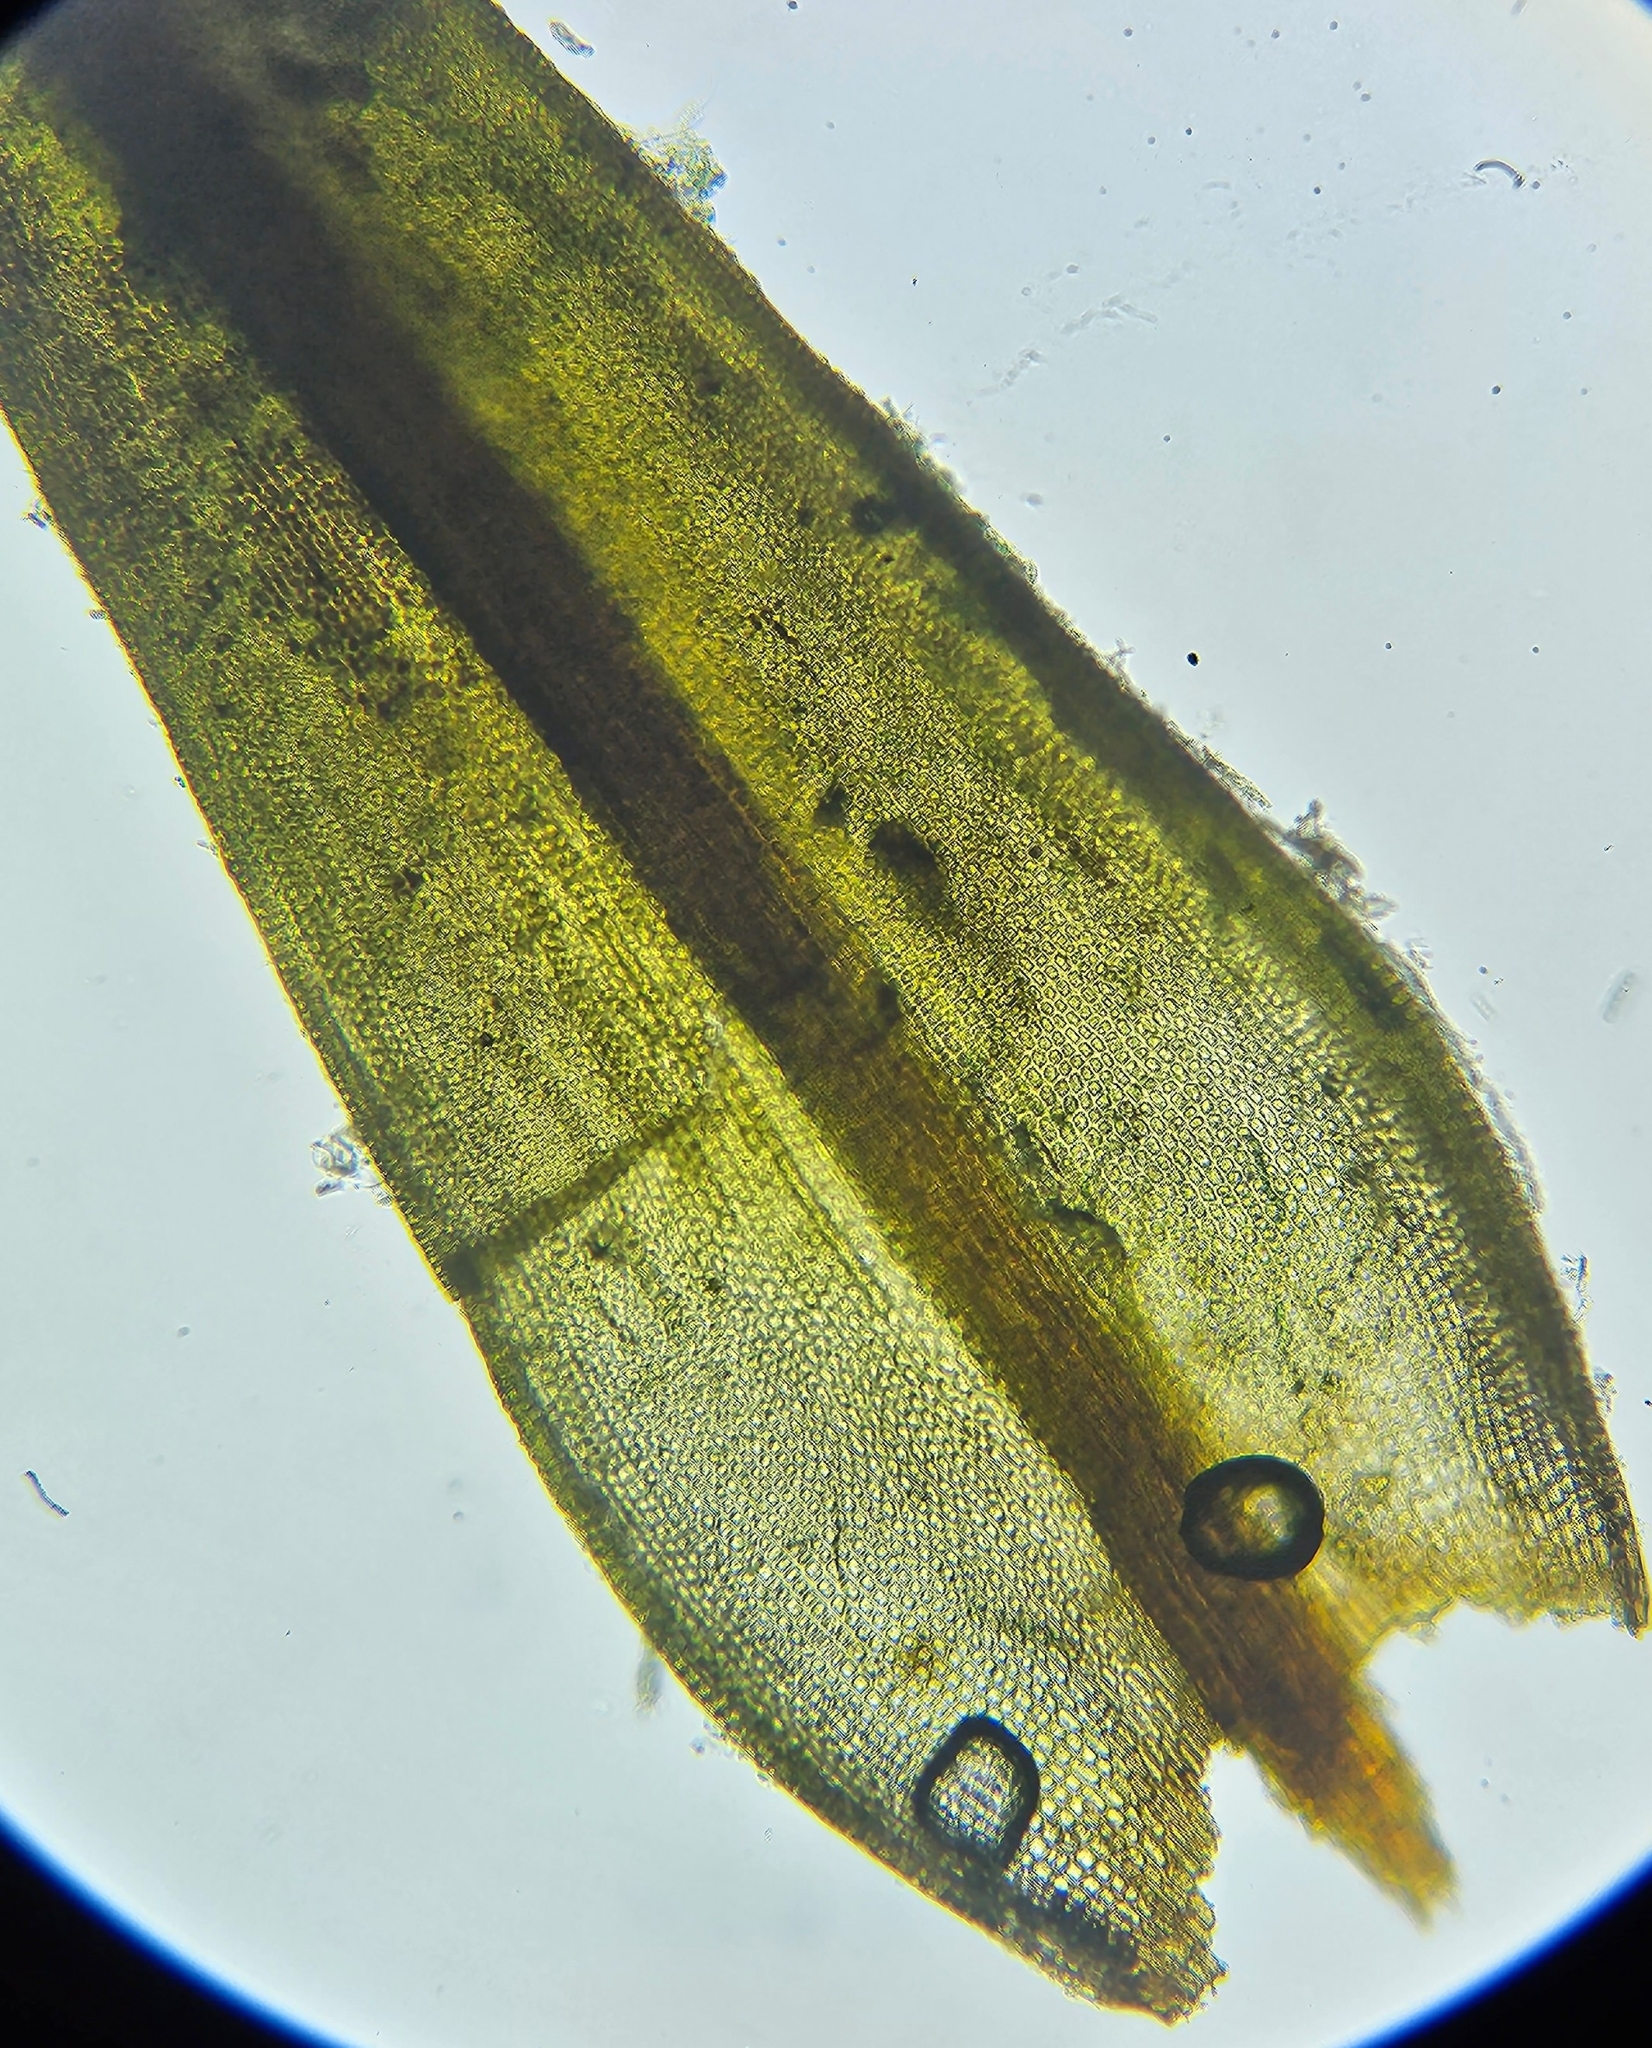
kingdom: Plantae
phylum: Bryophyta
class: Bryopsida
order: Grimmiales
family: Grimmiaceae
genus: Schistidium
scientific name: Schistidium maritimum
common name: Seaside bloom moss
